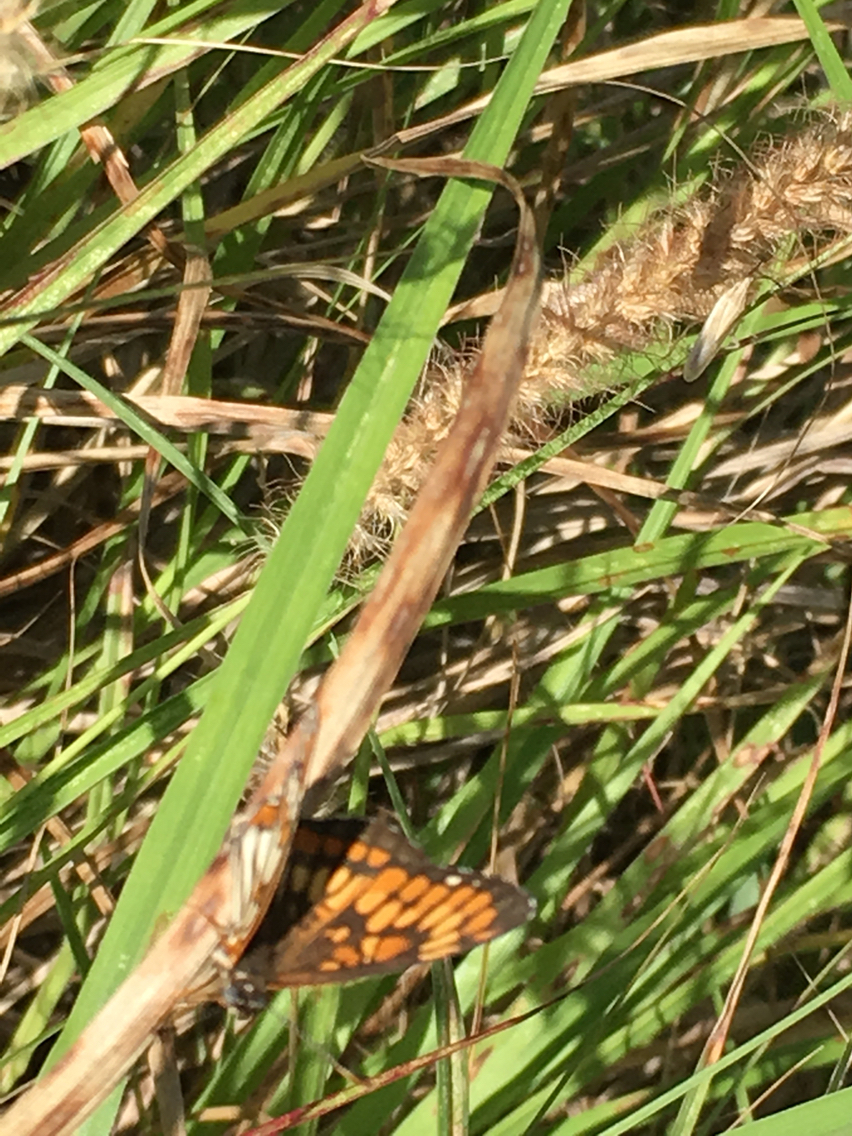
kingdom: Animalia
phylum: Arthropoda
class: Insecta
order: Lepidoptera
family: Nymphalidae
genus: Thessalia
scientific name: Thessalia theona
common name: Nymphalid moth
